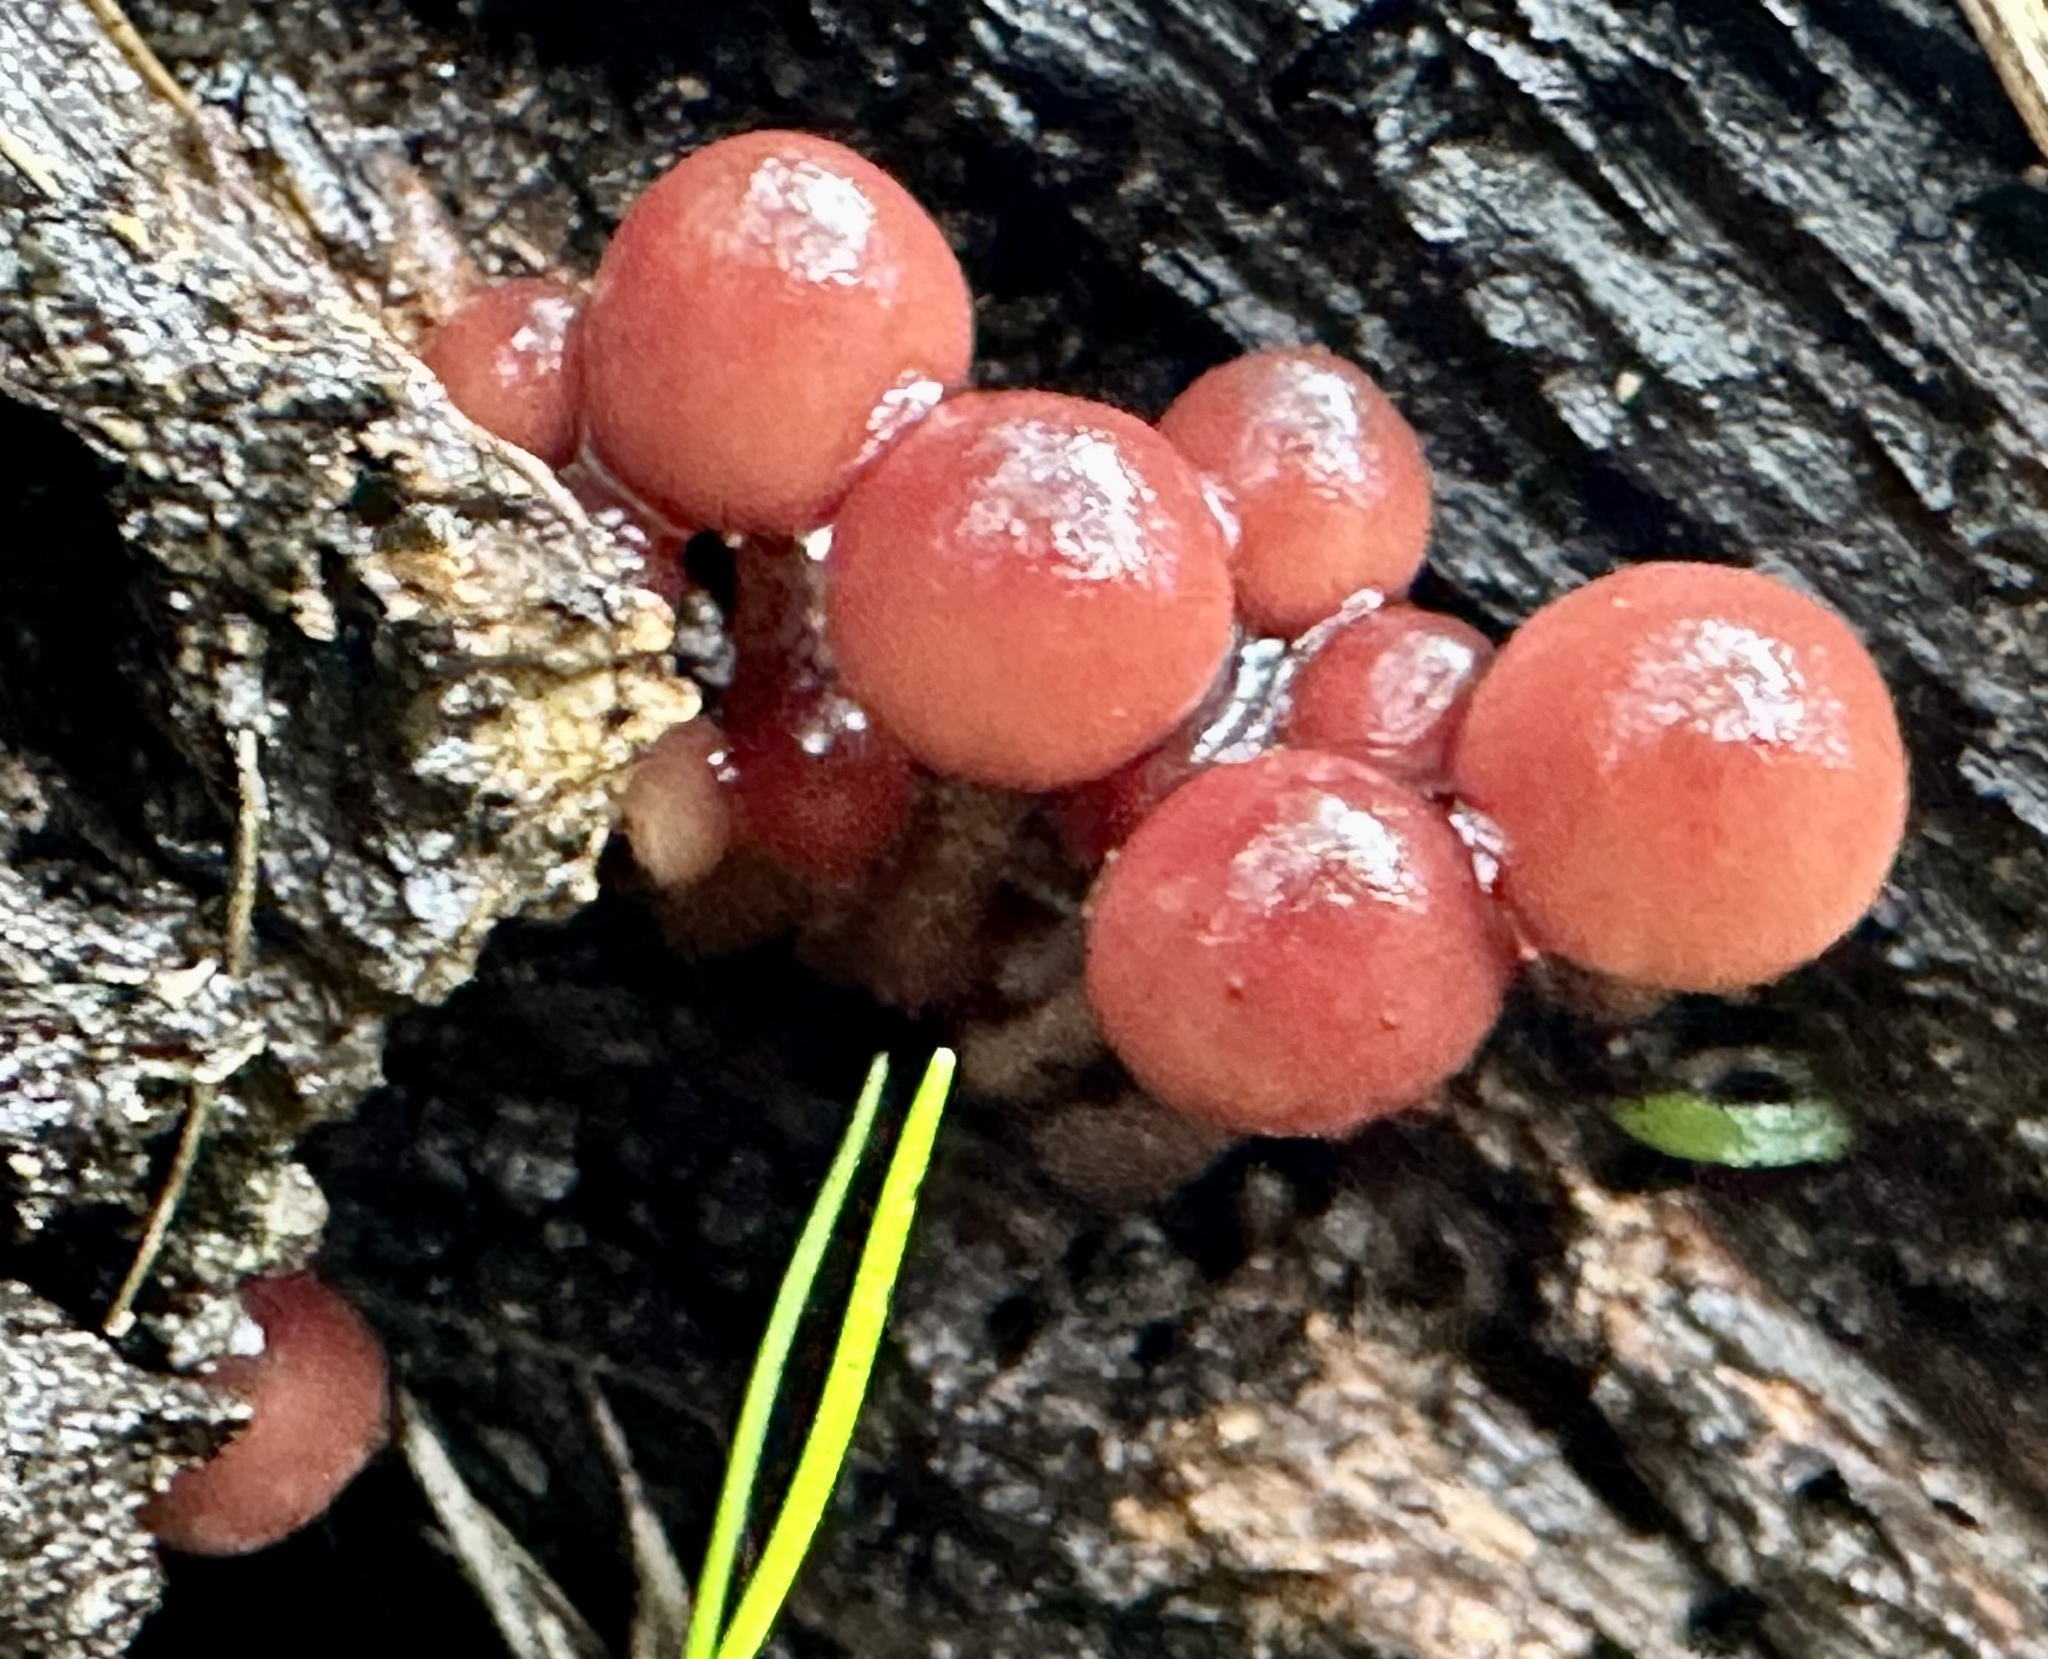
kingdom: Fungi
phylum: Basidiomycota
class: Agaricomycetes
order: Agaricales
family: Mycenaceae
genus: Mycena
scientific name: Mycena haematopus
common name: Burgundydrop bonnet
